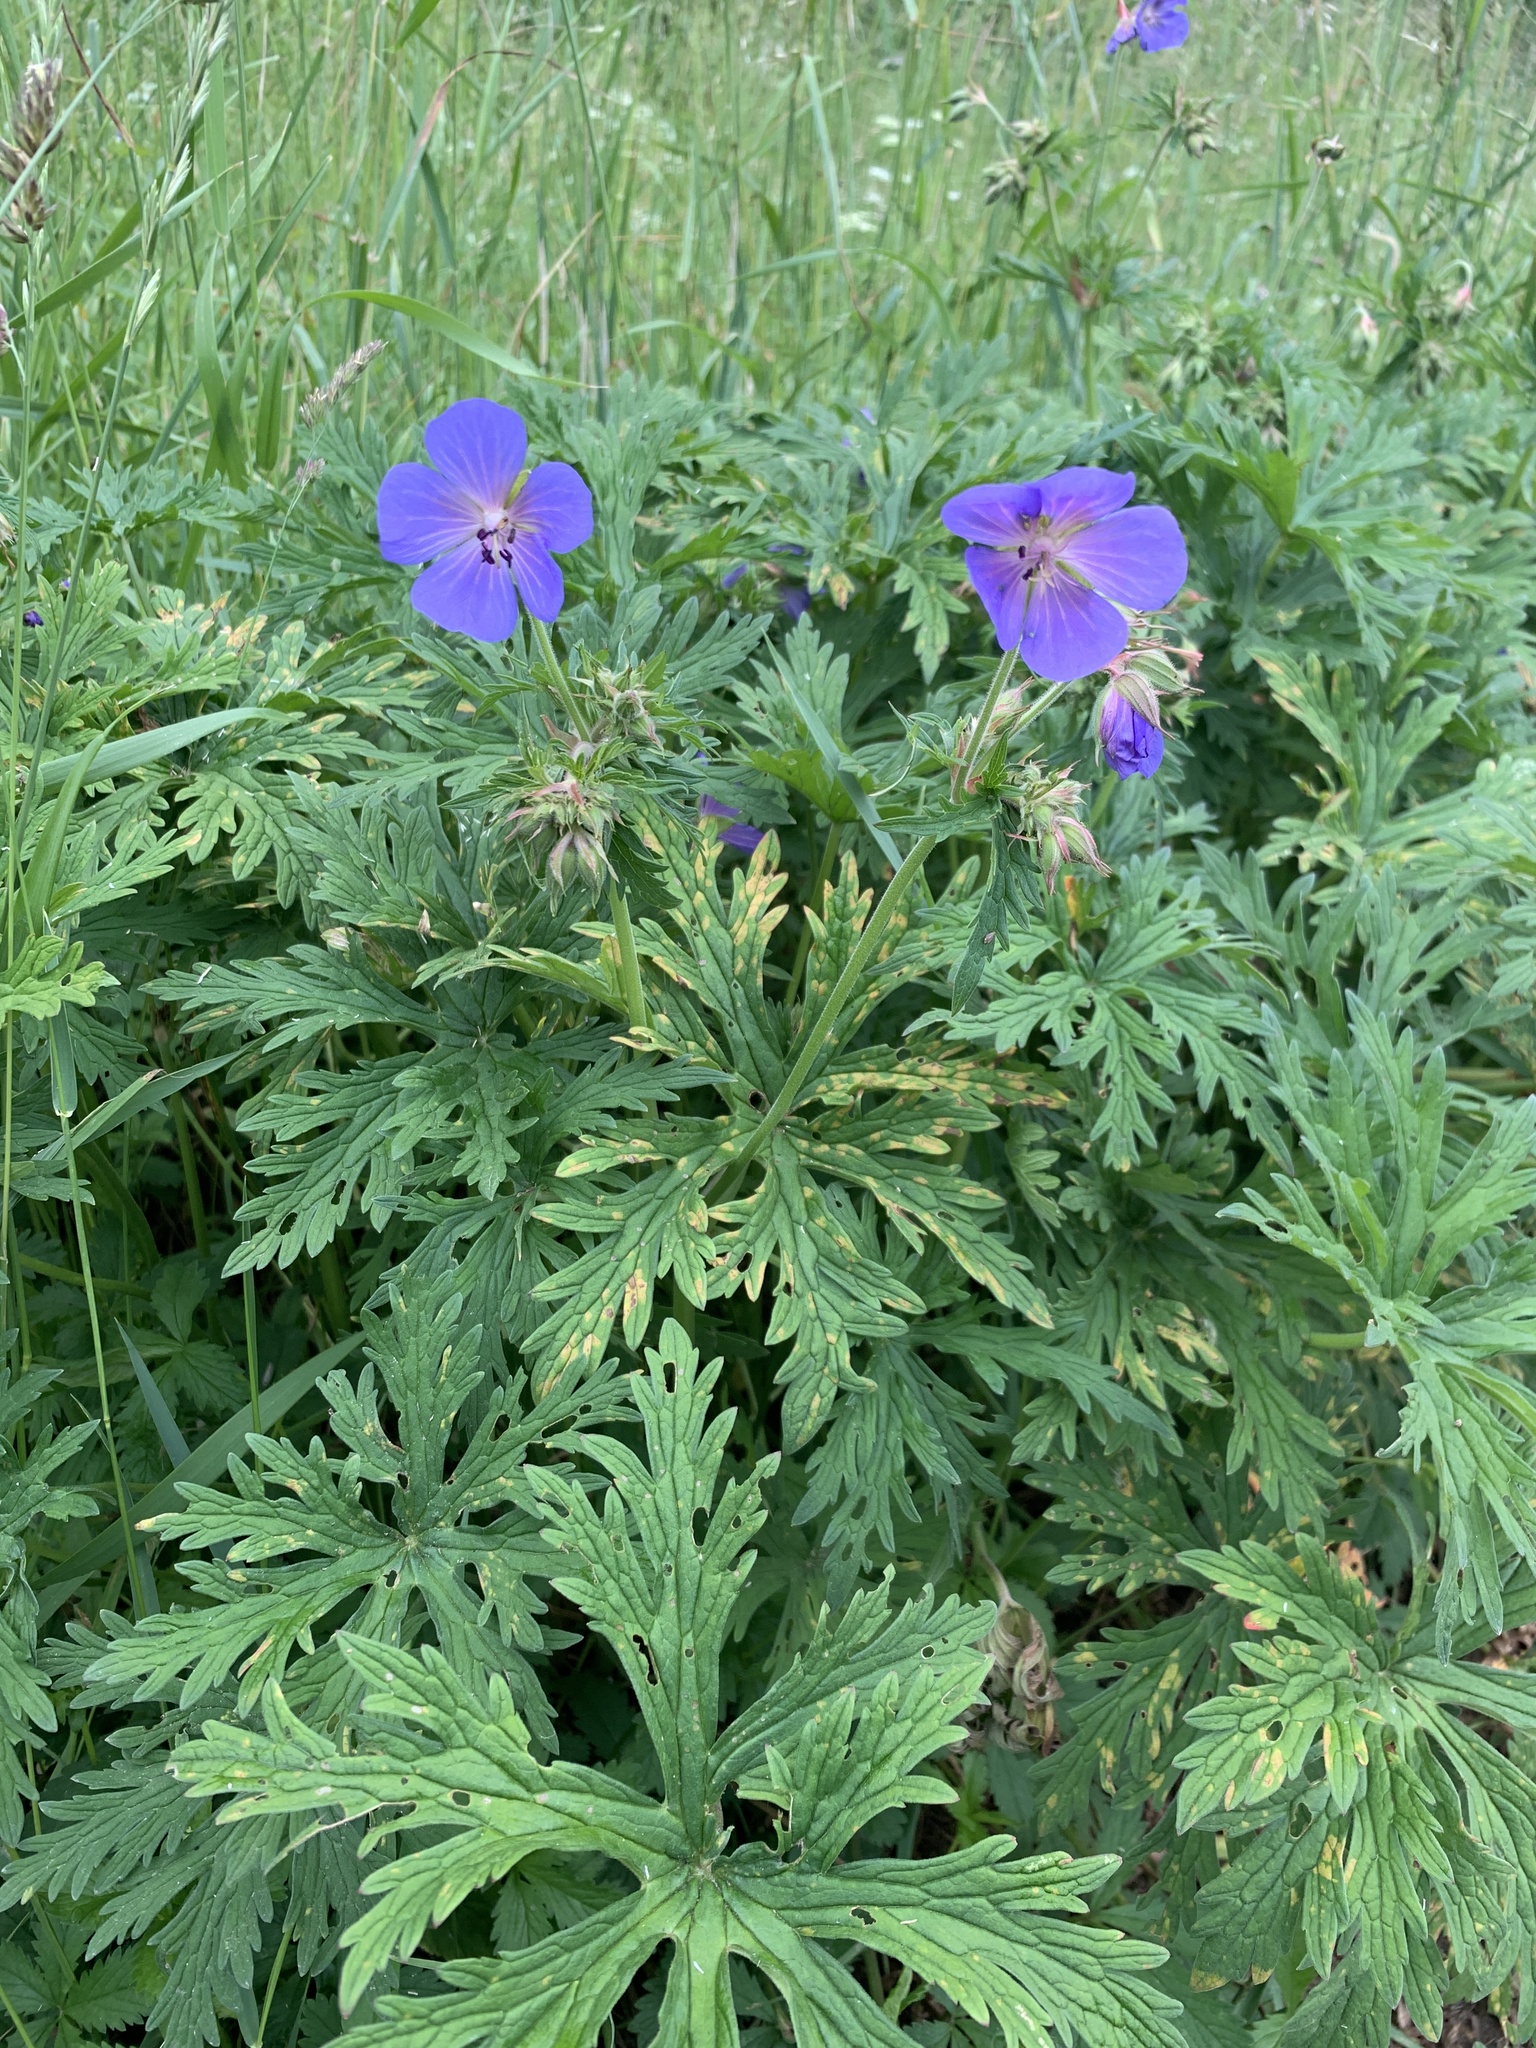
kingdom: Plantae
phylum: Tracheophyta
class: Magnoliopsida
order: Geraniales
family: Geraniaceae
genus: Geranium
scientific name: Geranium pratense
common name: Meadow crane's-bill
